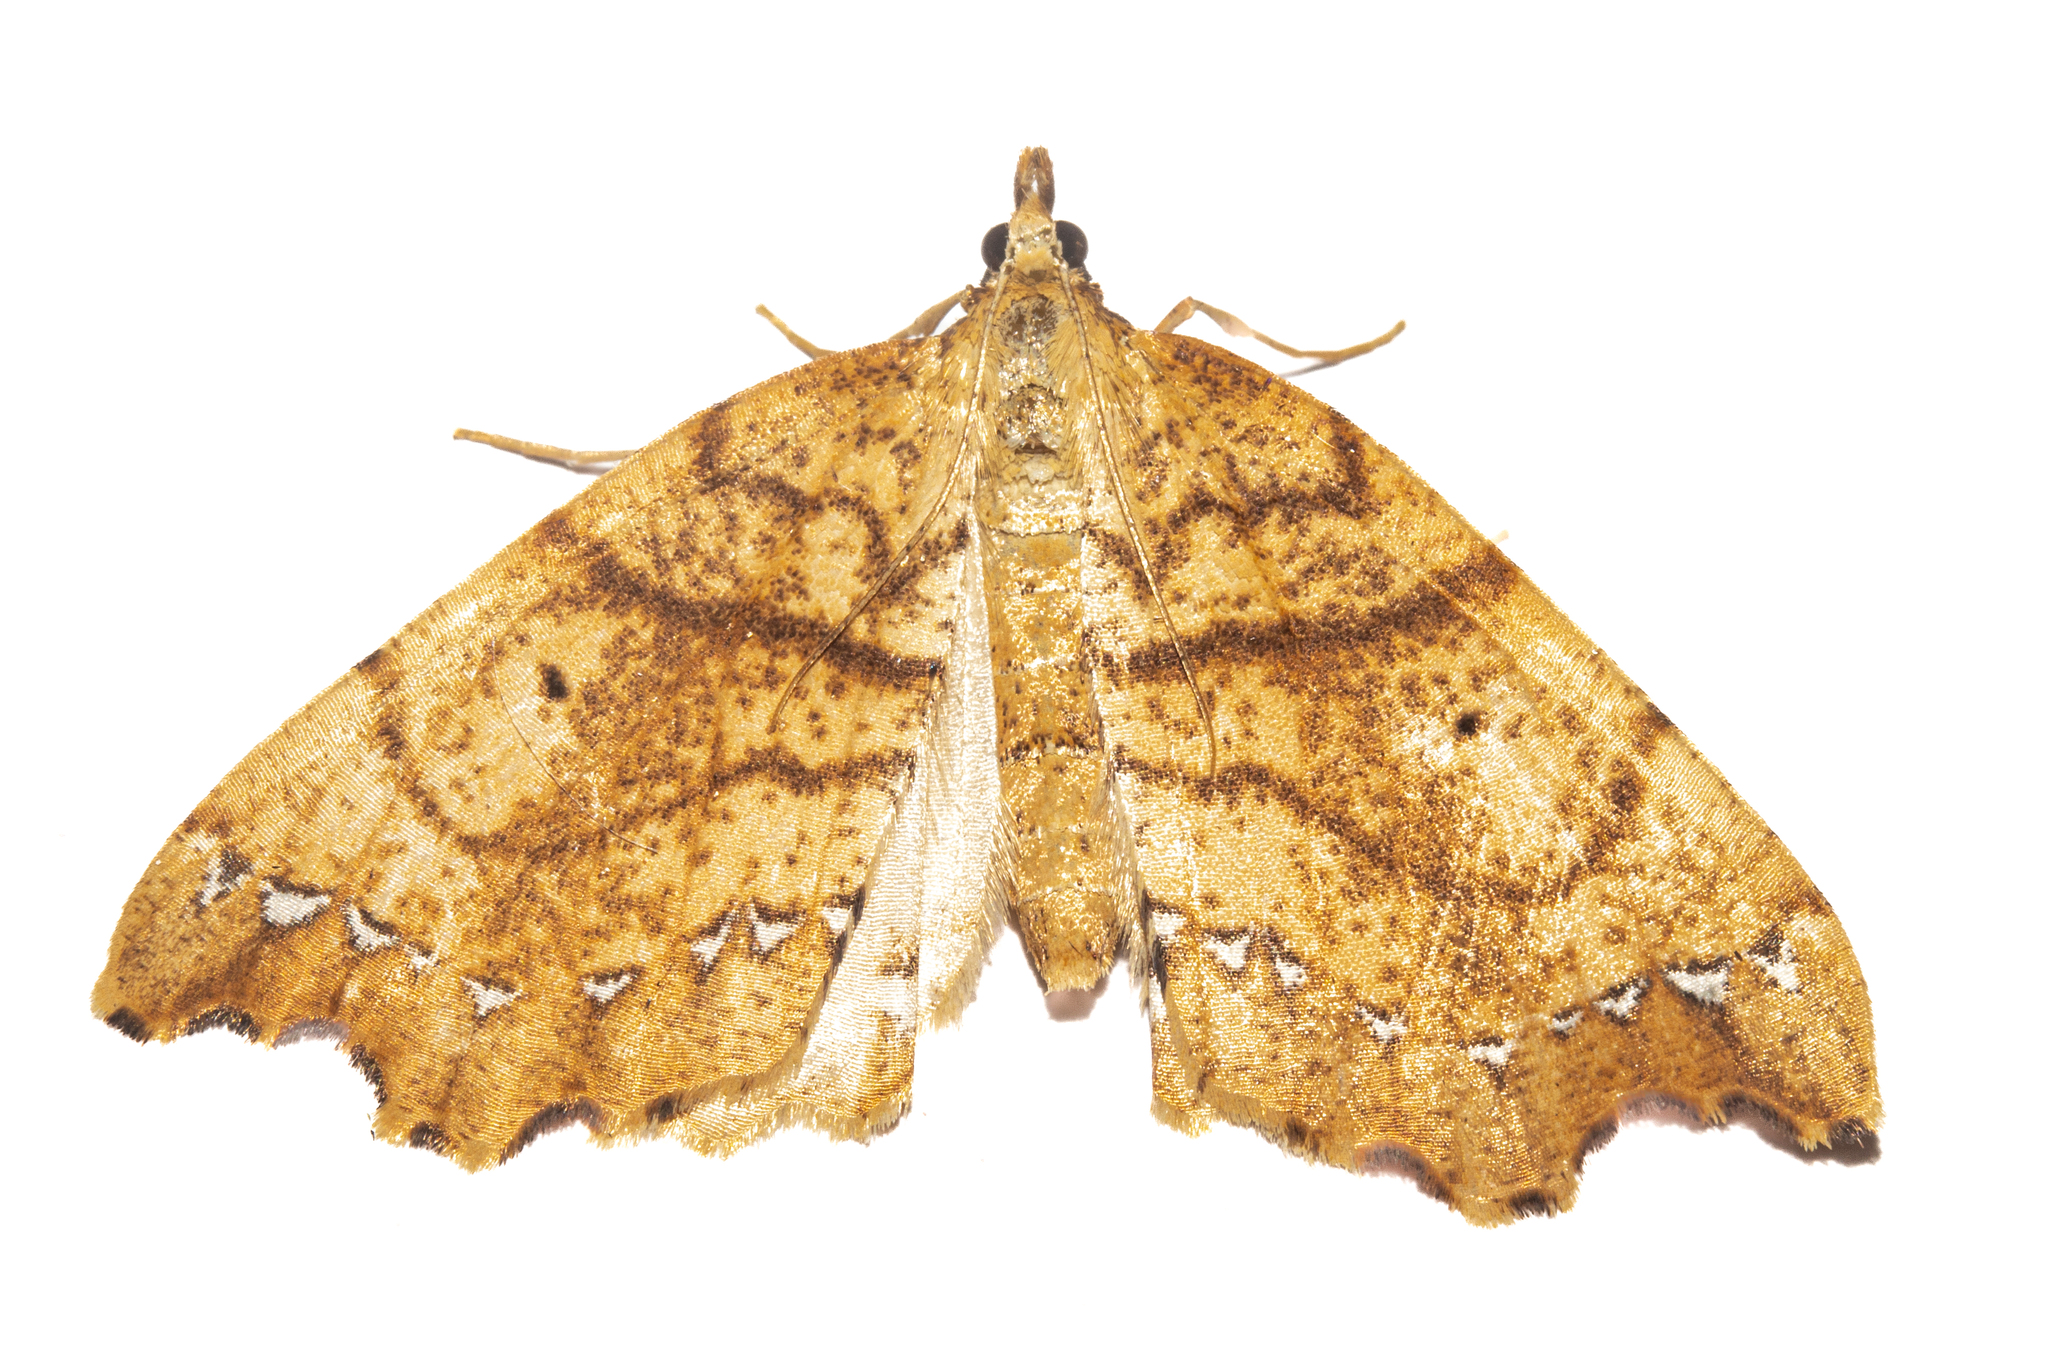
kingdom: Animalia
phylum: Arthropoda
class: Insecta
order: Lepidoptera
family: Geometridae
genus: Chalastra
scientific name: Chalastra pellurgata
